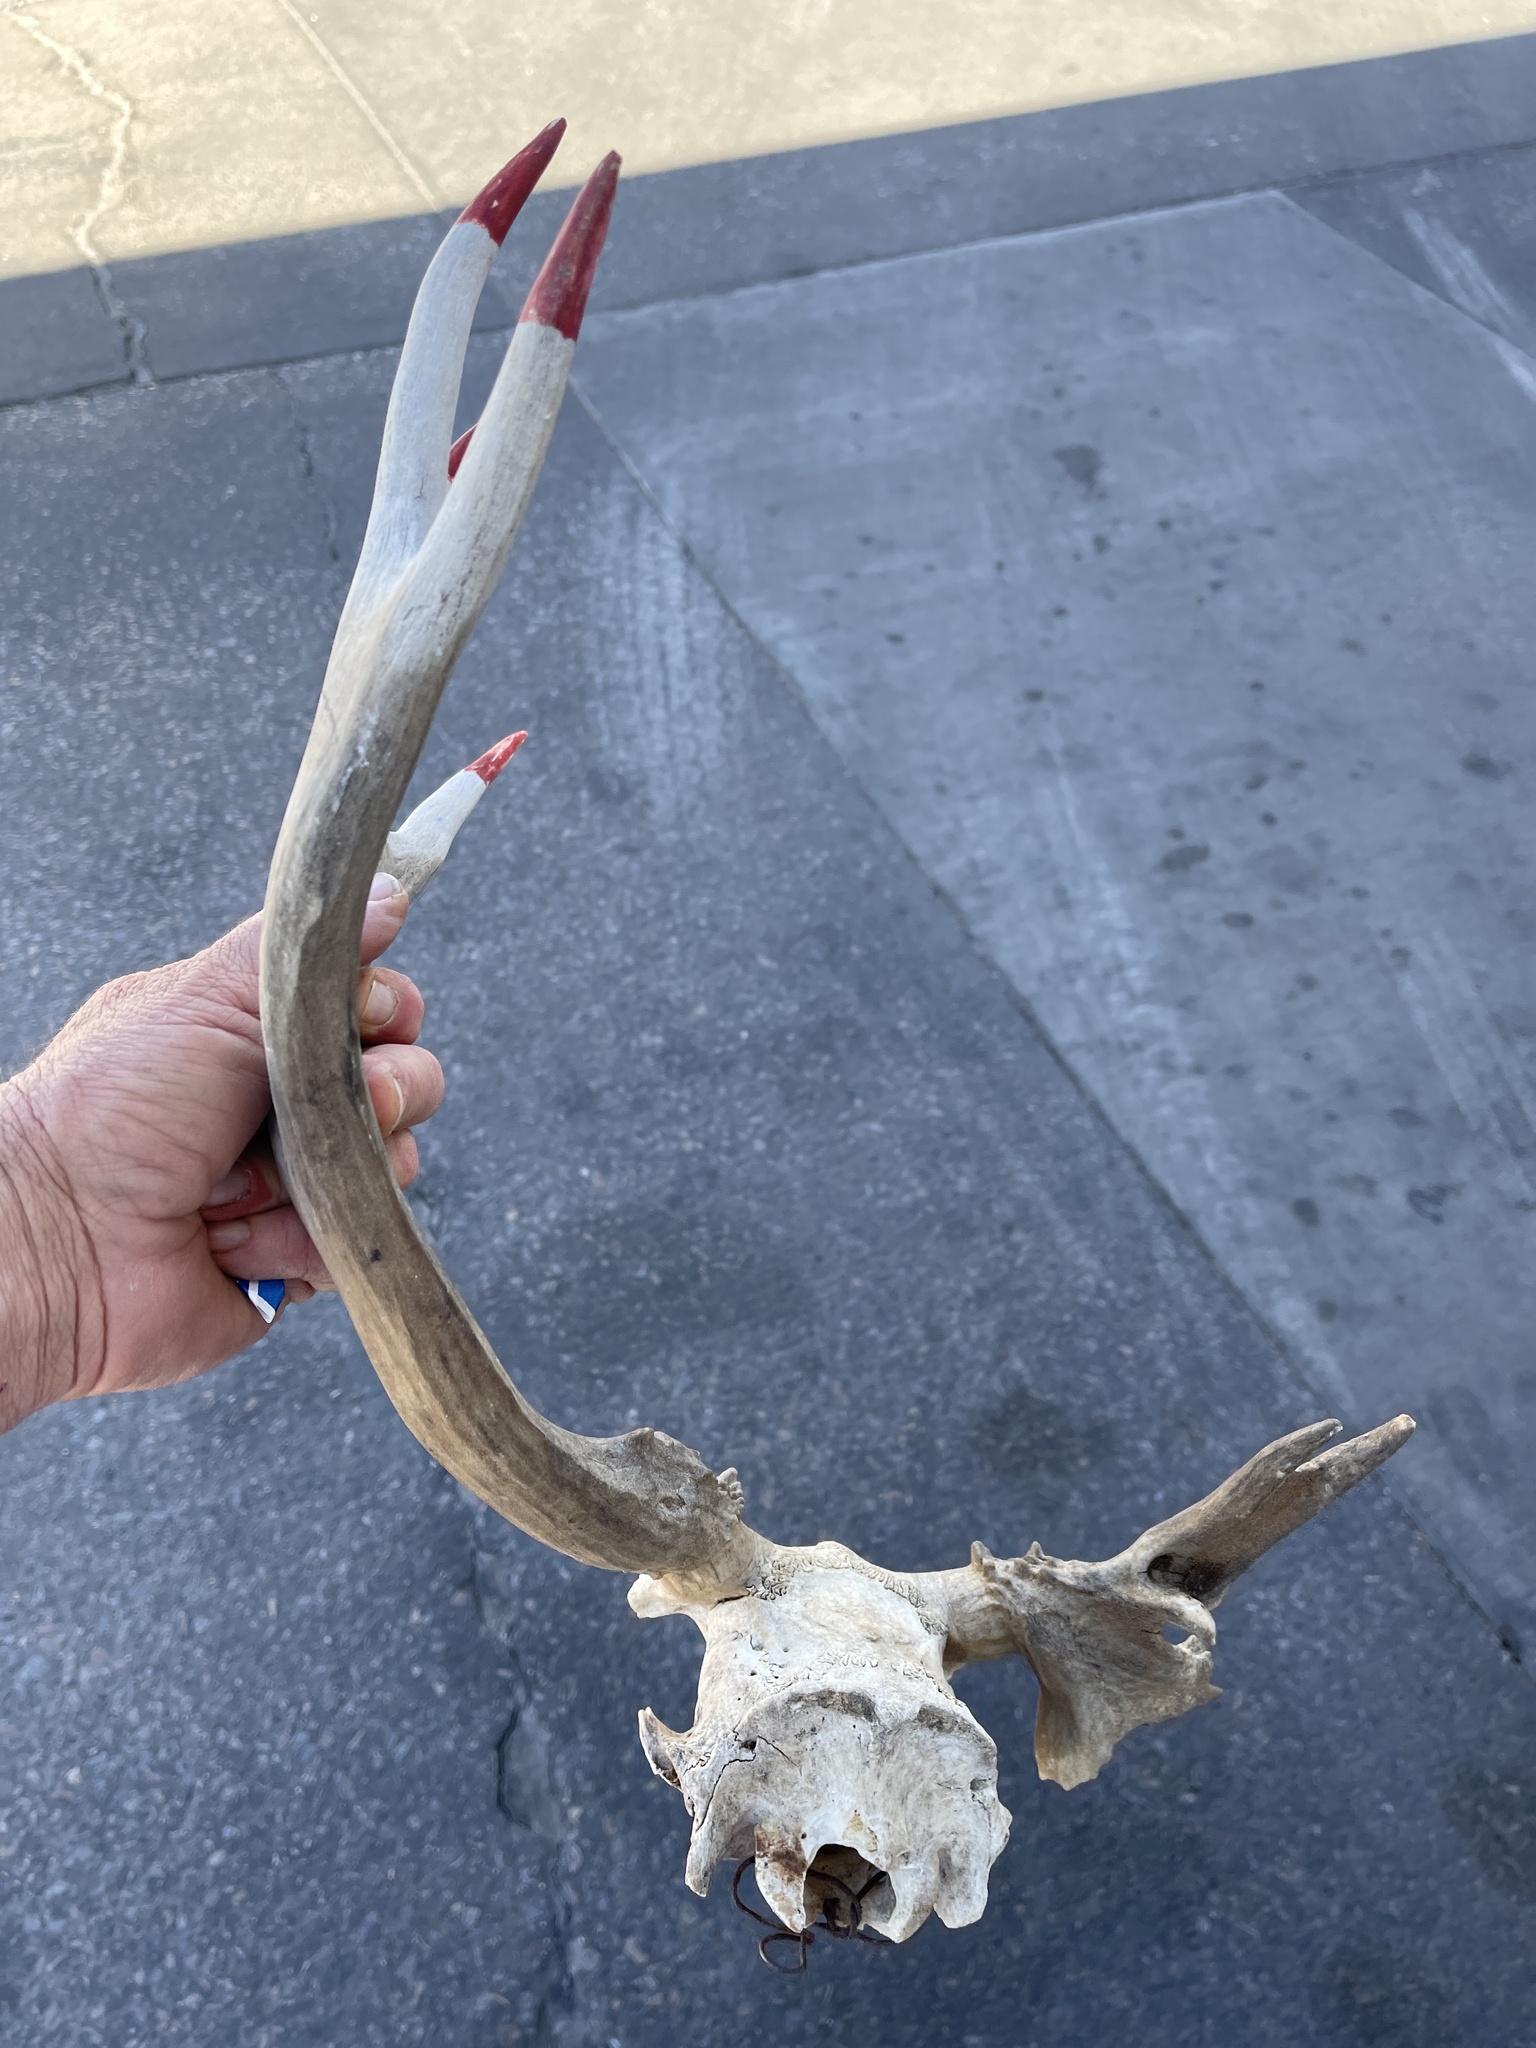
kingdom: Animalia
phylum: Chordata
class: Mammalia
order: Artiodactyla
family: Cervidae
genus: Odocoileus
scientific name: Odocoileus hemionus
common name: Mule deer
